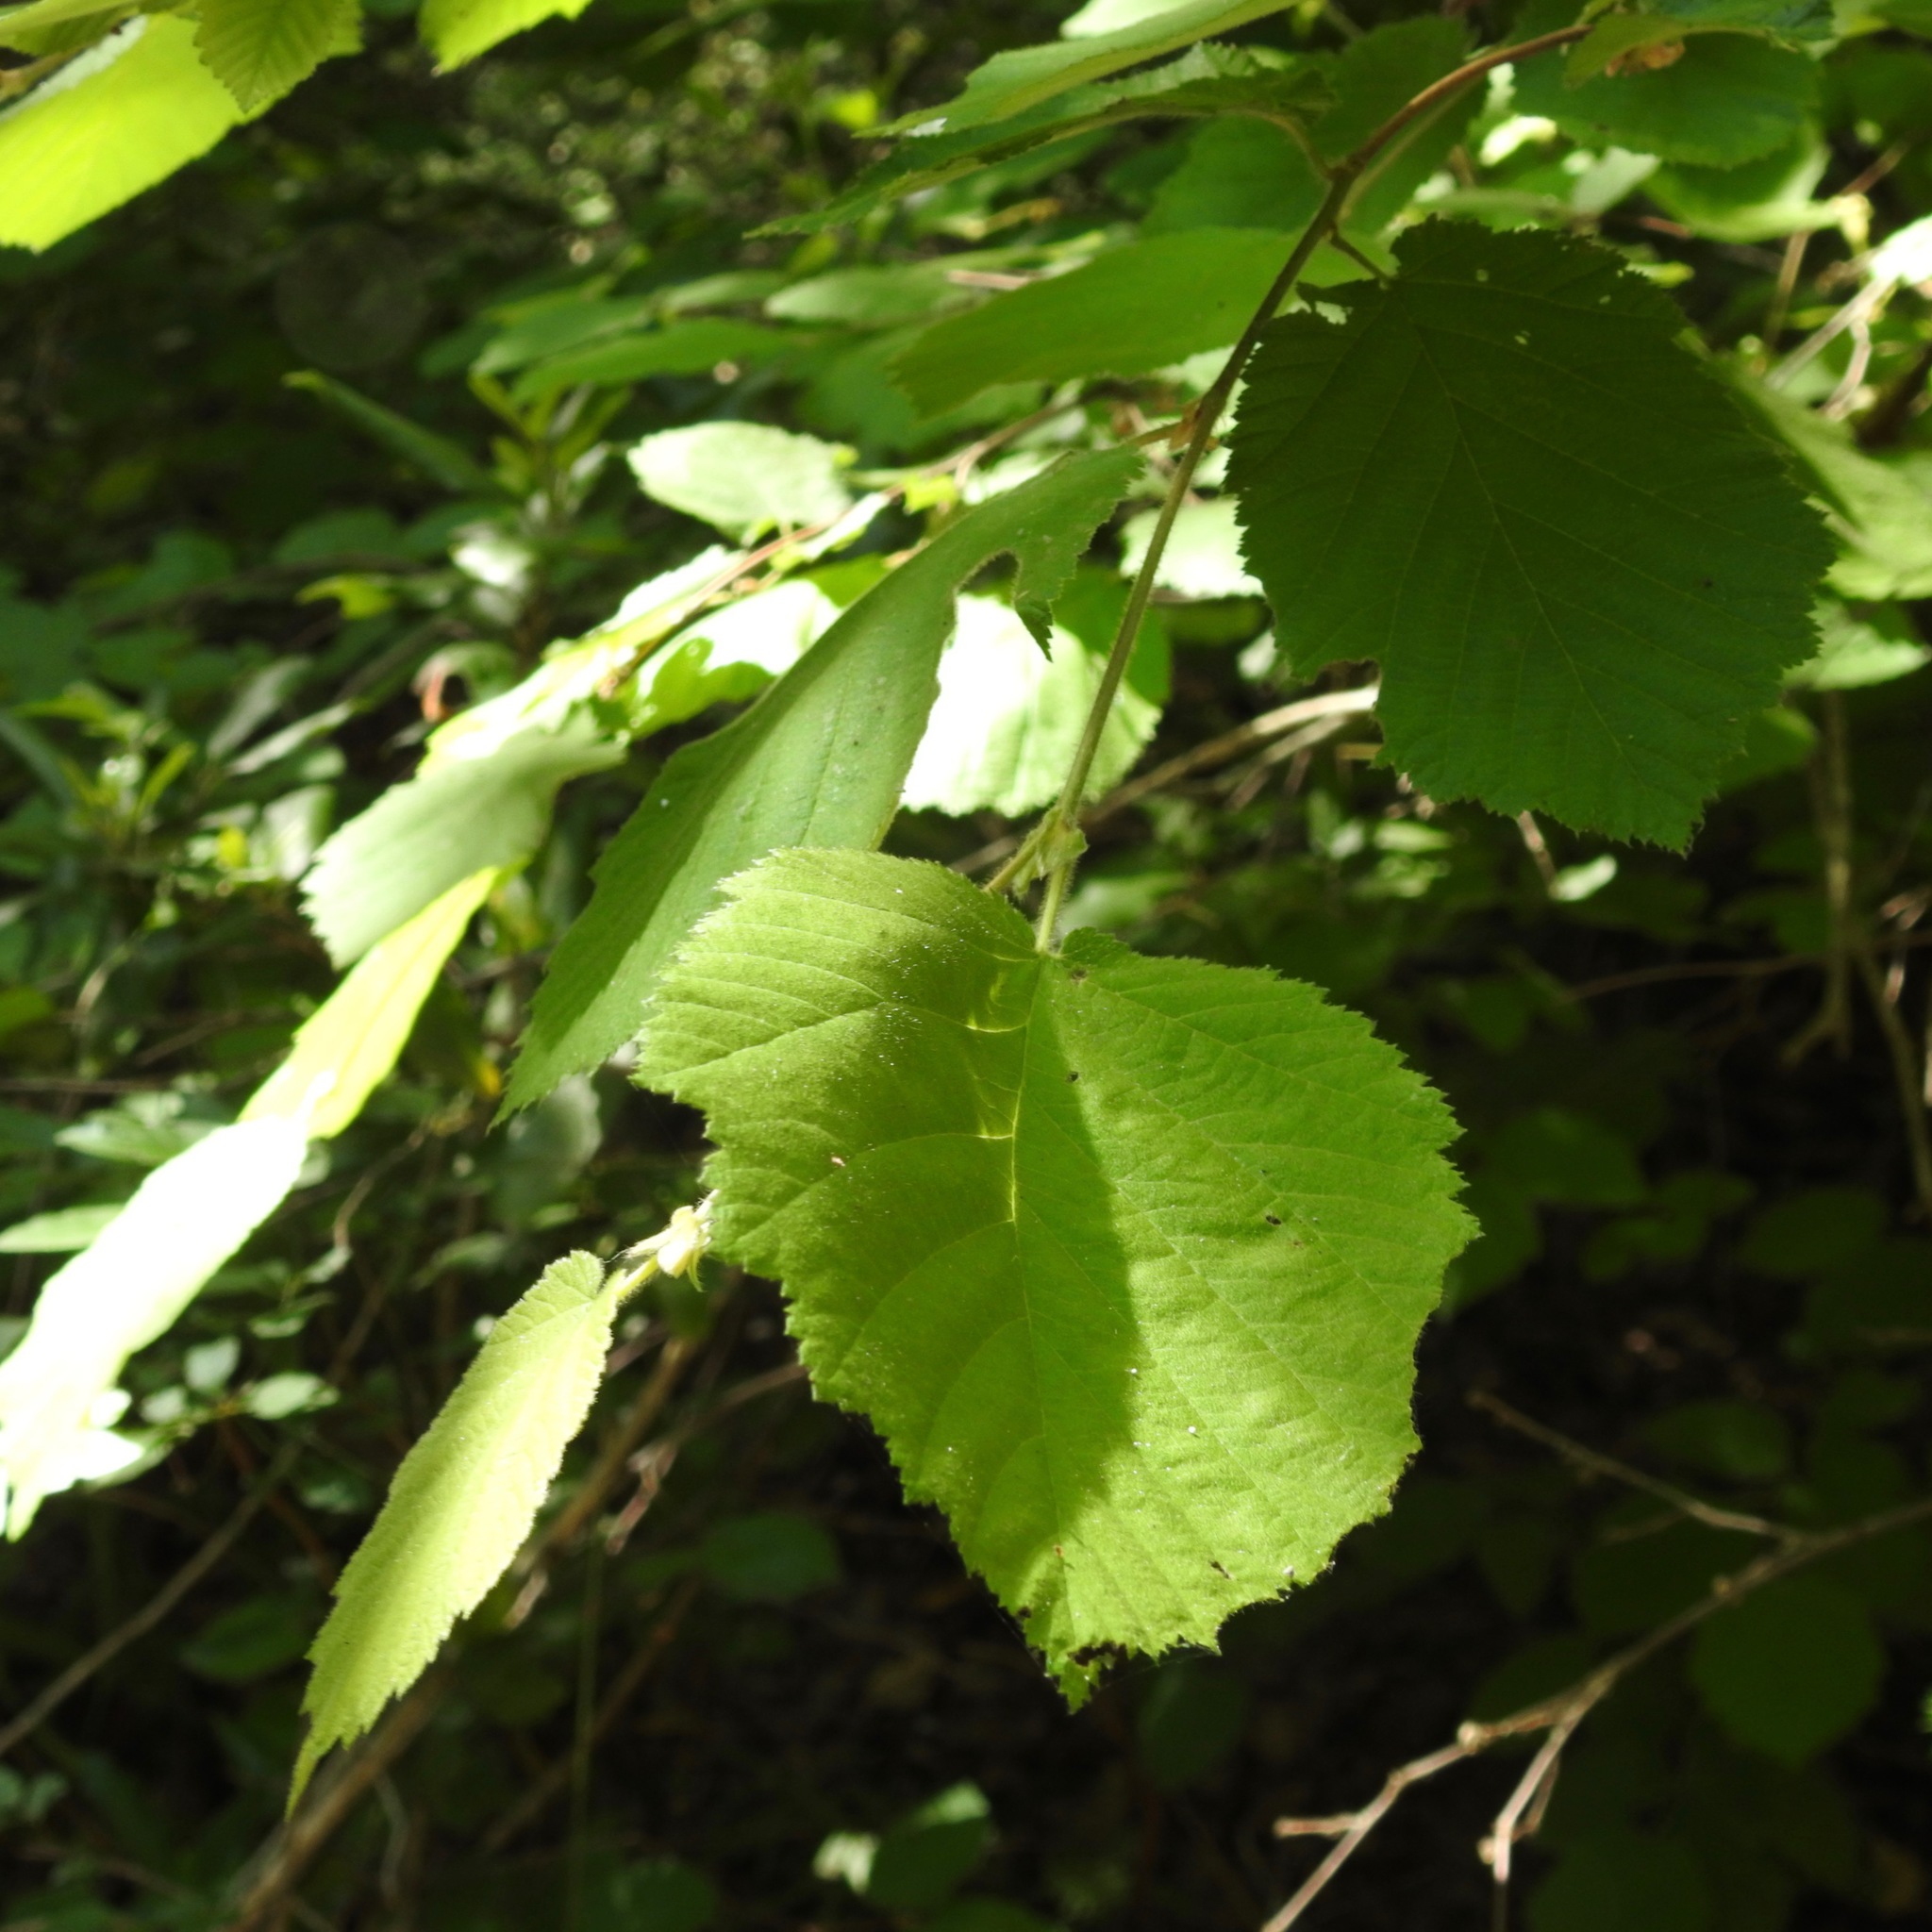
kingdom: Plantae
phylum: Tracheophyta
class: Magnoliopsida
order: Fagales
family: Betulaceae
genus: Corylus
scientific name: Corylus cornuta
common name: Beaked hazel
